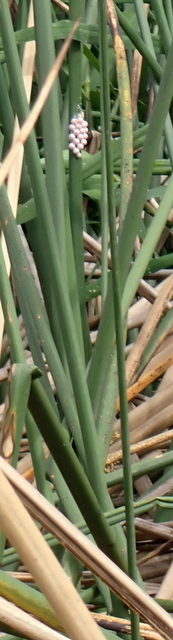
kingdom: Animalia
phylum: Mollusca
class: Gastropoda
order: Architaenioglossa
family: Ampullariidae
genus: Pomacea
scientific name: Pomacea paludosa
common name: Florida applesnail
